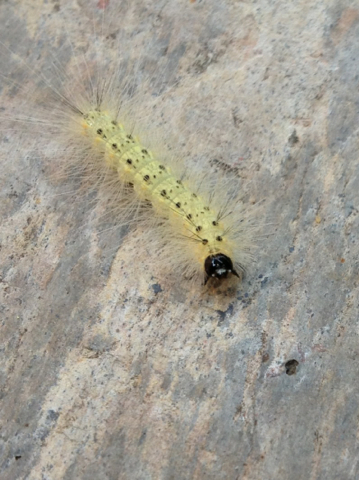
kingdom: Animalia
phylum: Arthropoda
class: Insecta
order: Lepidoptera
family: Erebidae
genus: Hyphantria
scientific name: Hyphantria cunea
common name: American white moth
